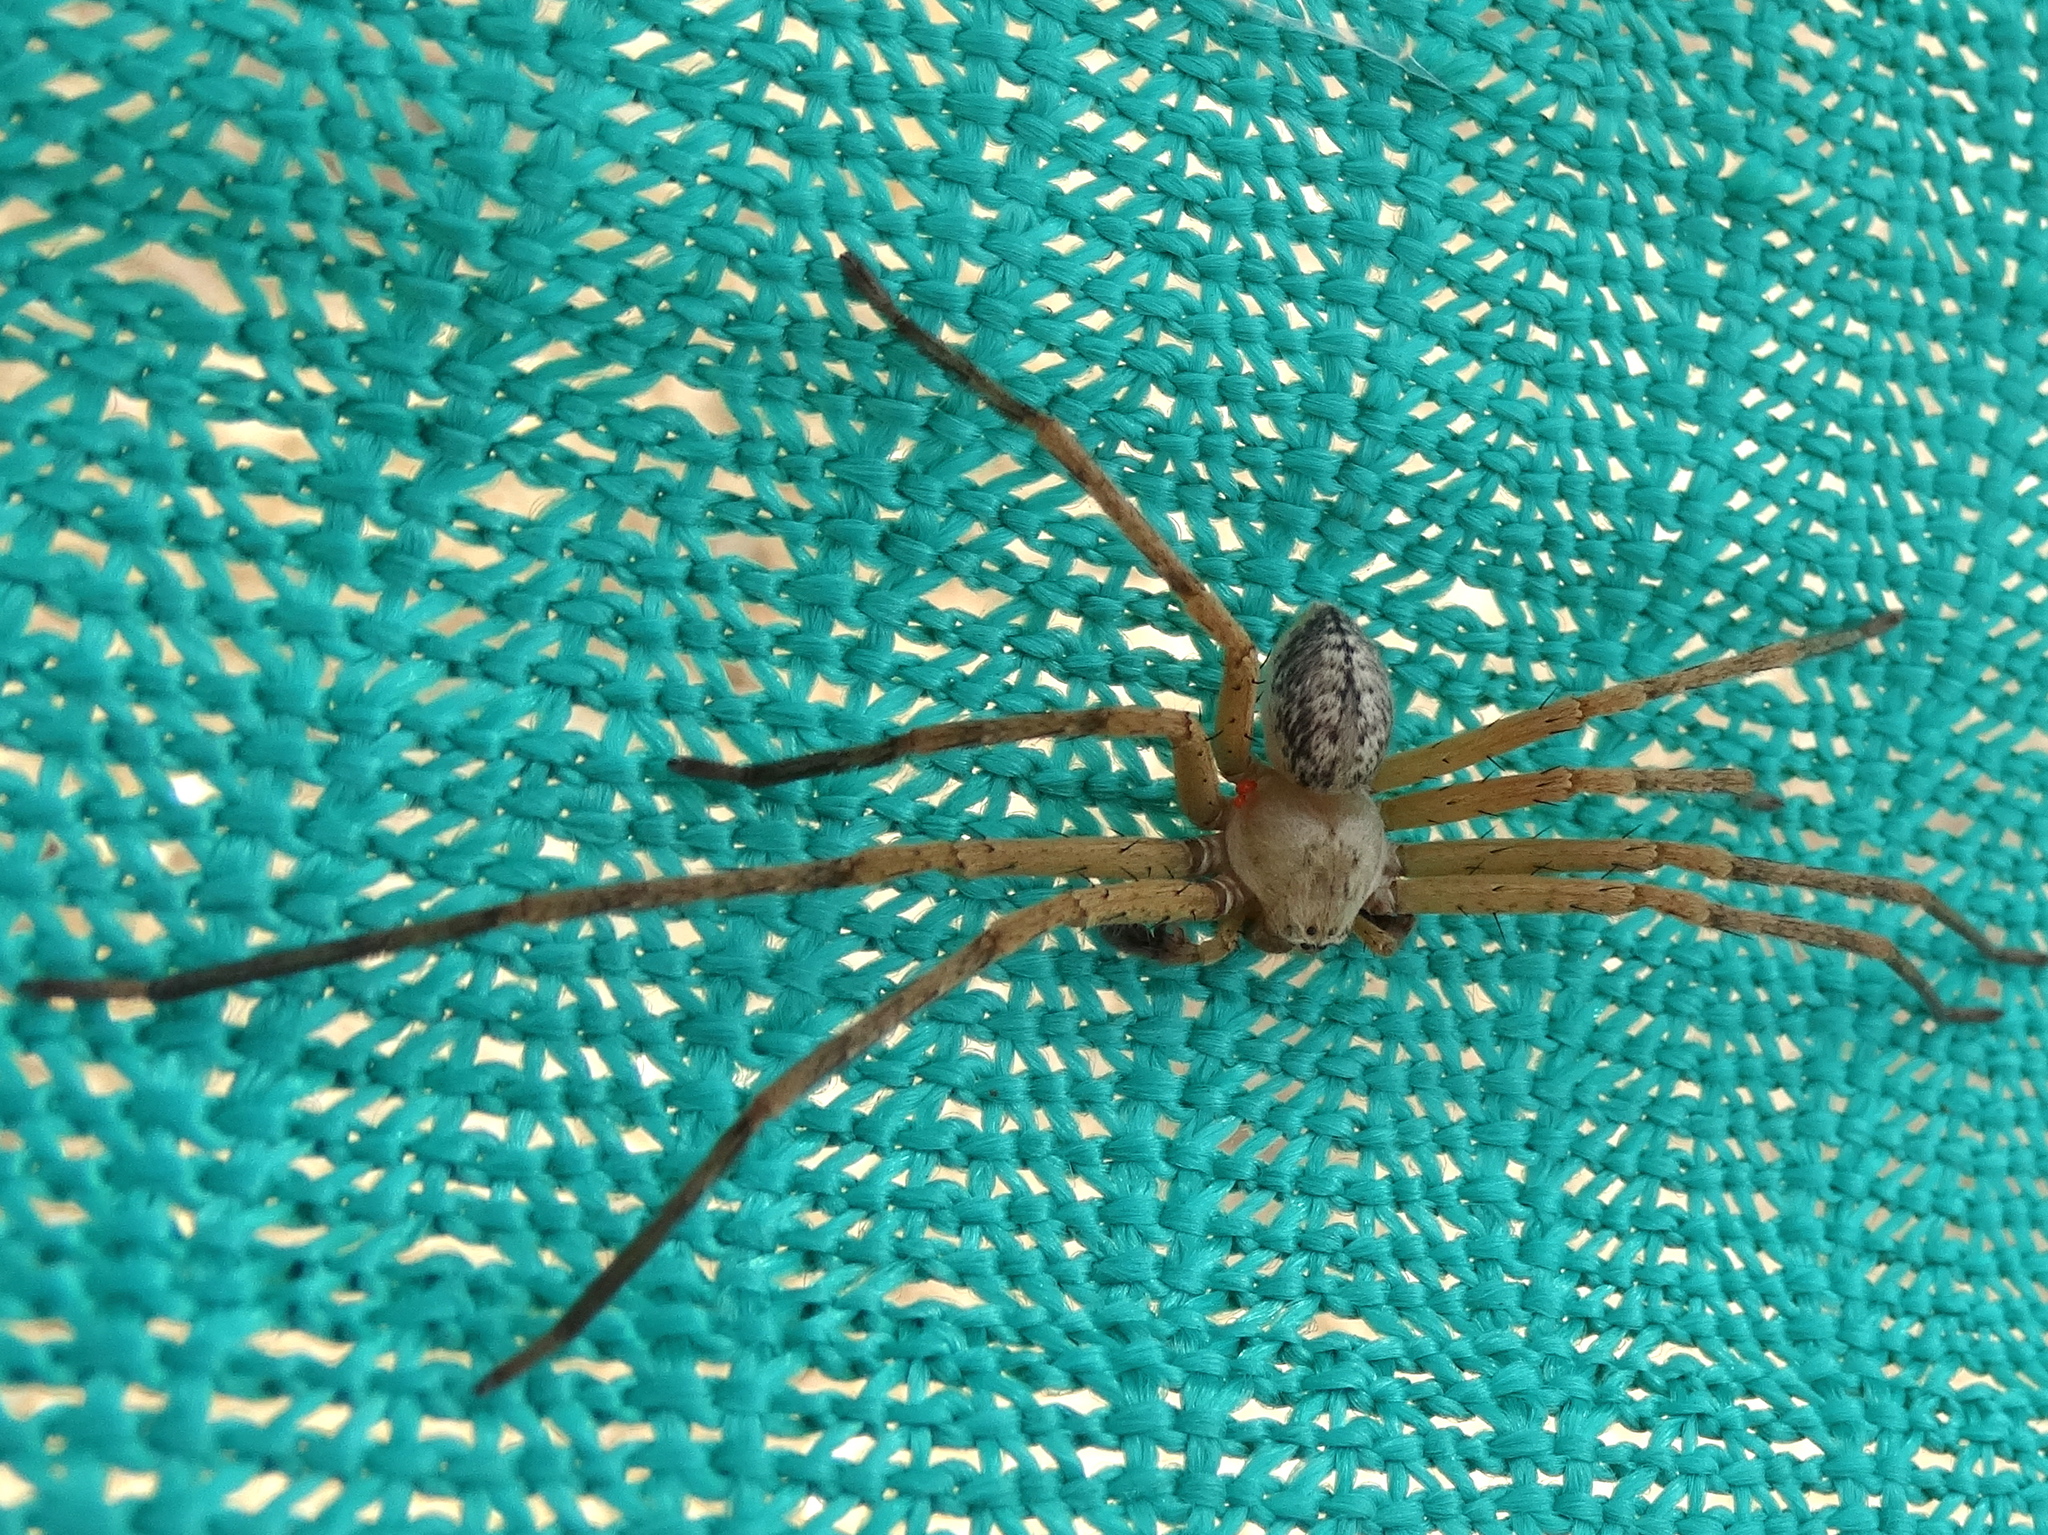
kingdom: Animalia
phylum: Arthropoda
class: Arachnida
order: Araneae
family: Sparassidae
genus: Curicaberis
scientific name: Curicaberis
